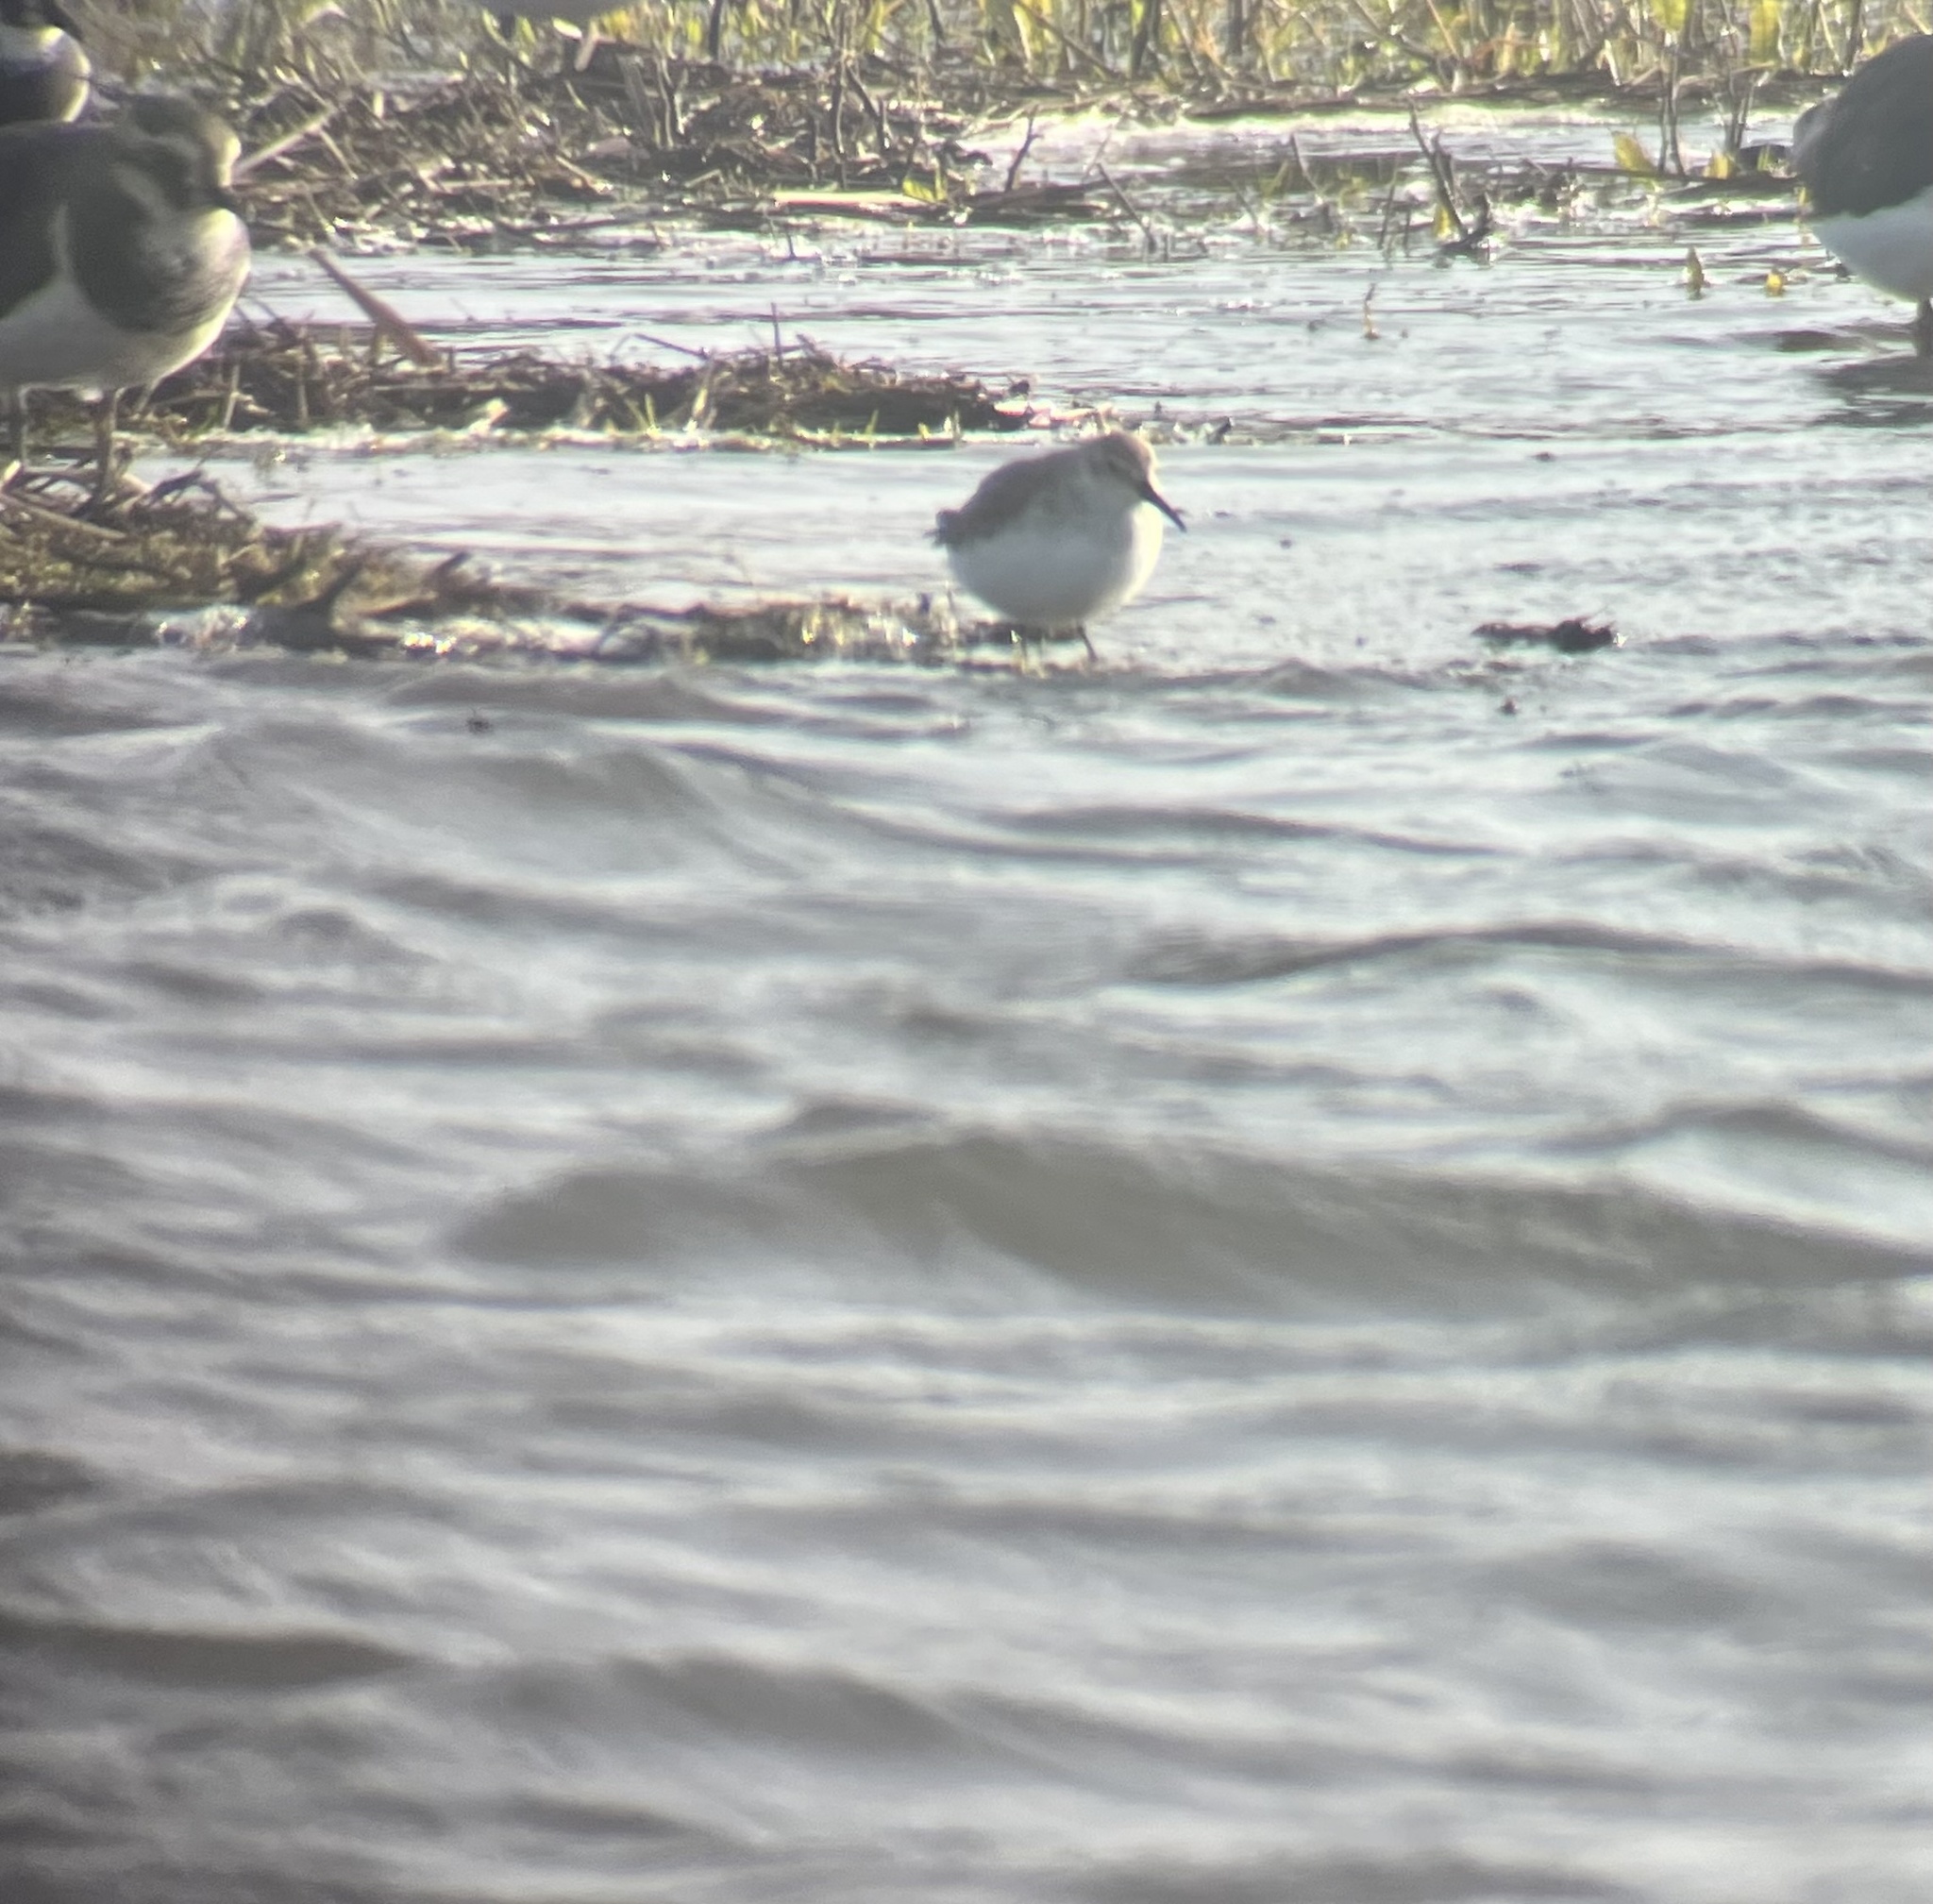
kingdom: Animalia
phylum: Chordata
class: Aves
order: Charadriiformes
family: Scolopacidae
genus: Calidris
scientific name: Calidris alpina
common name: Dunlin
